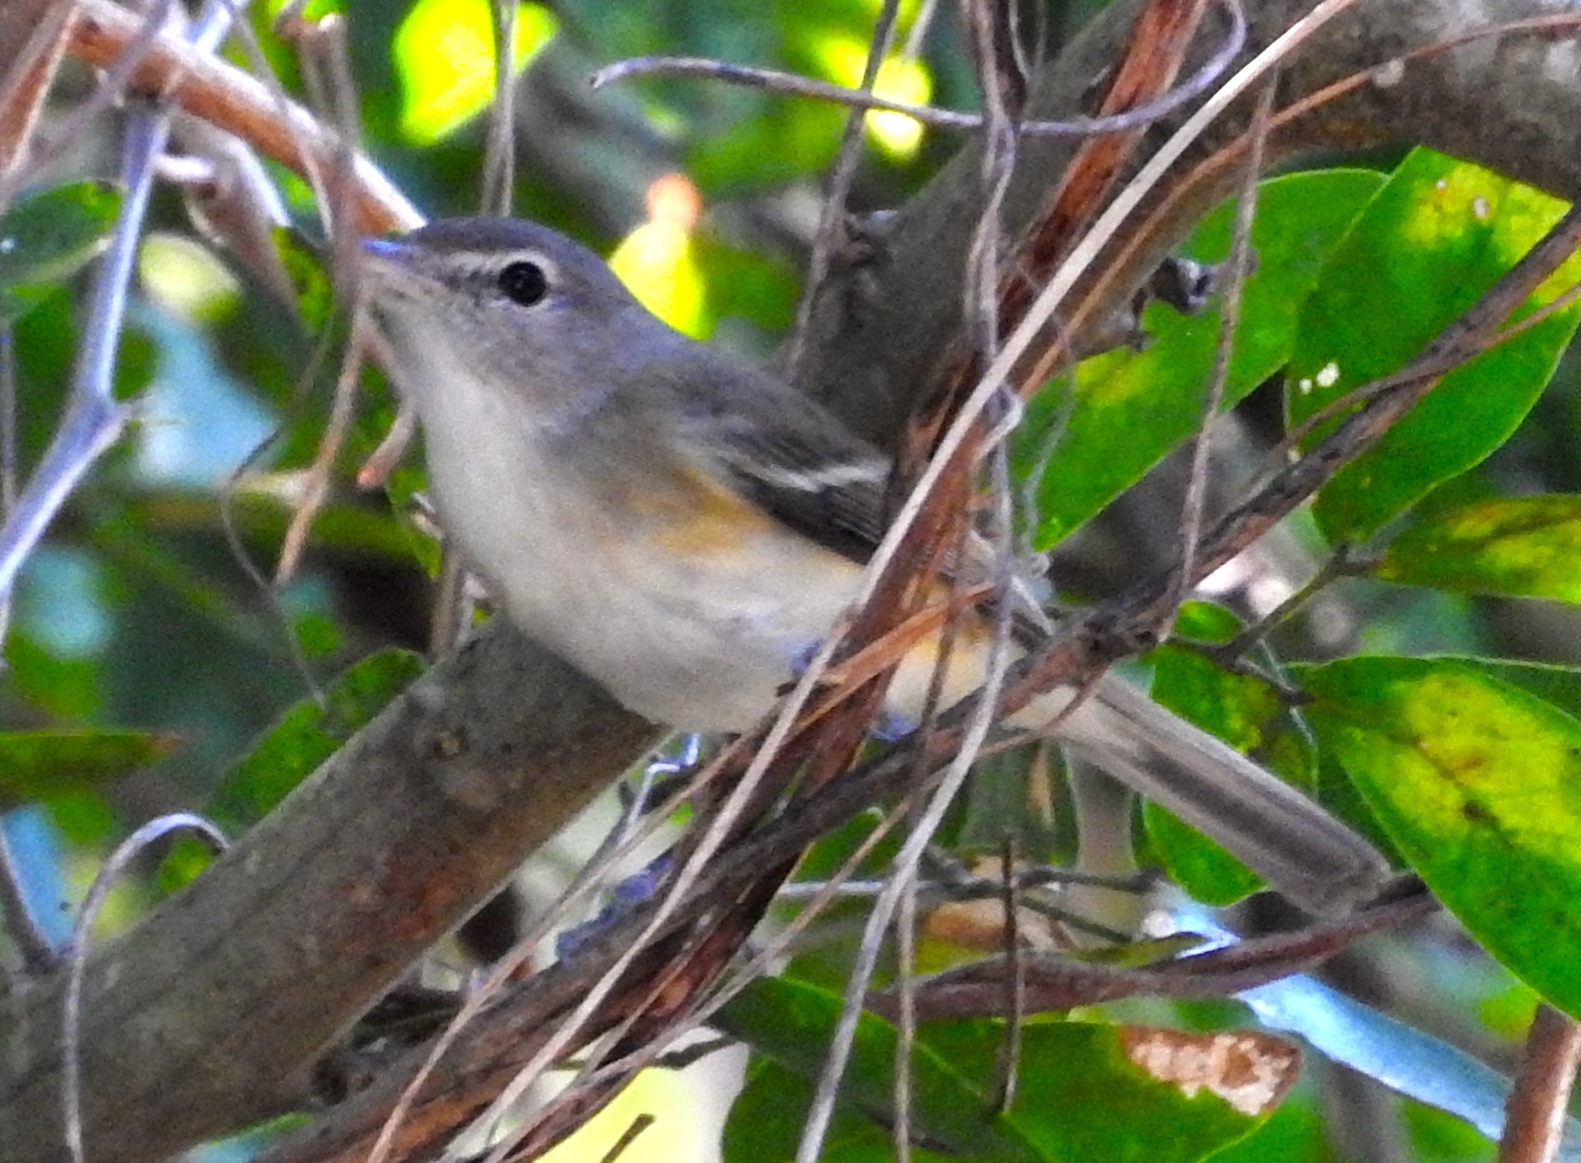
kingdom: Animalia
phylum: Chordata
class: Aves
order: Passeriformes
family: Vireonidae
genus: Vireo
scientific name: Vireo
